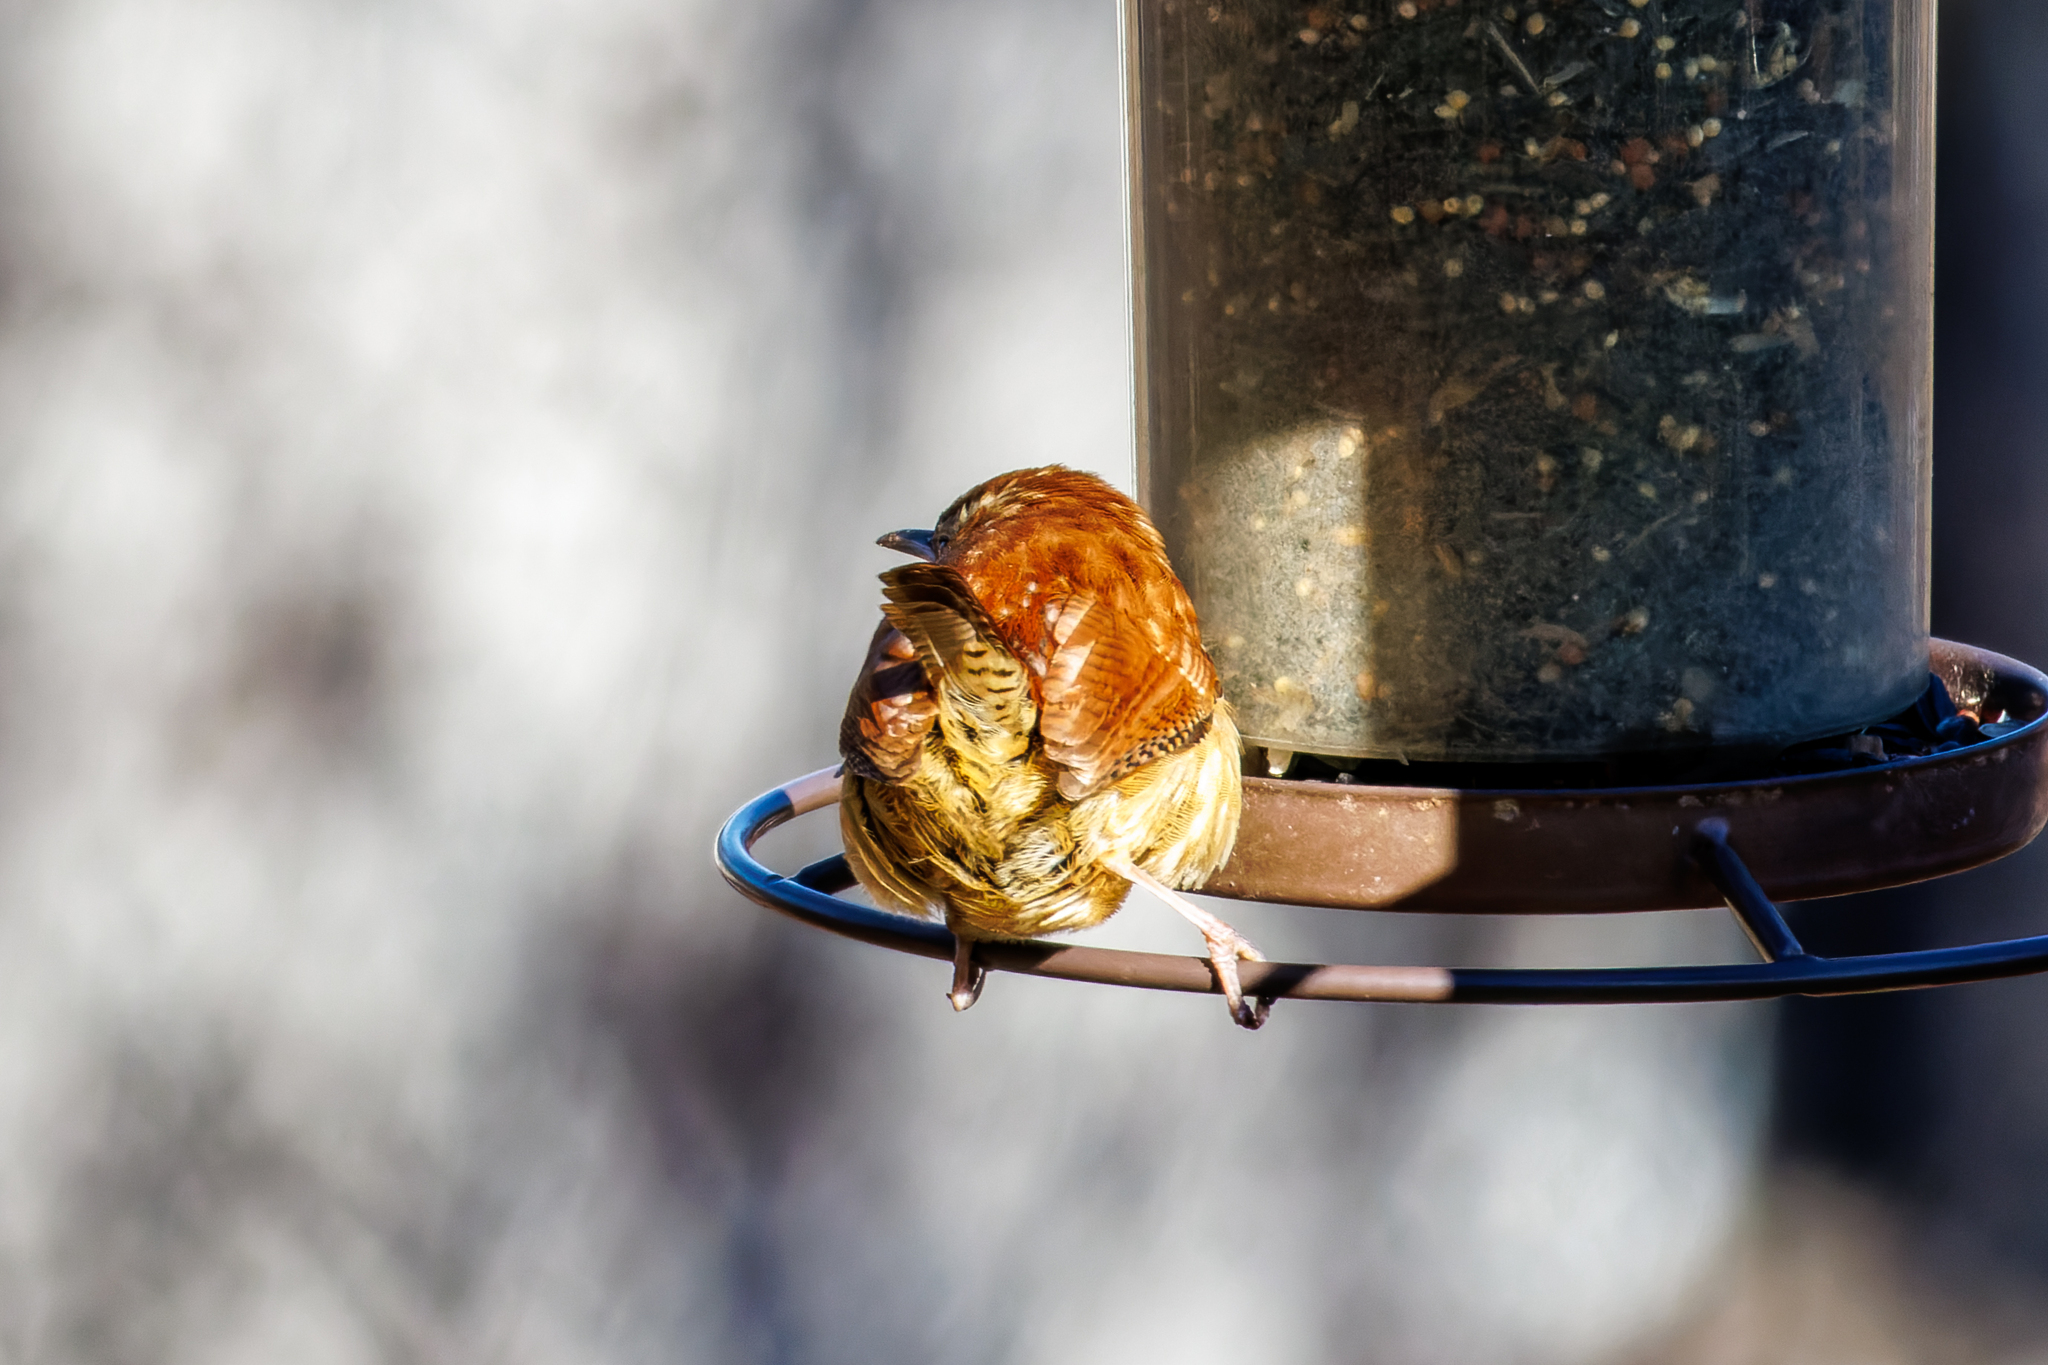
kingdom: Animalia
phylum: Chordata
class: Aves
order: Passeriformes
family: Troglodytidae
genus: Thryothorus
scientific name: Thryothorus ludovicianus
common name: Carolina wren
